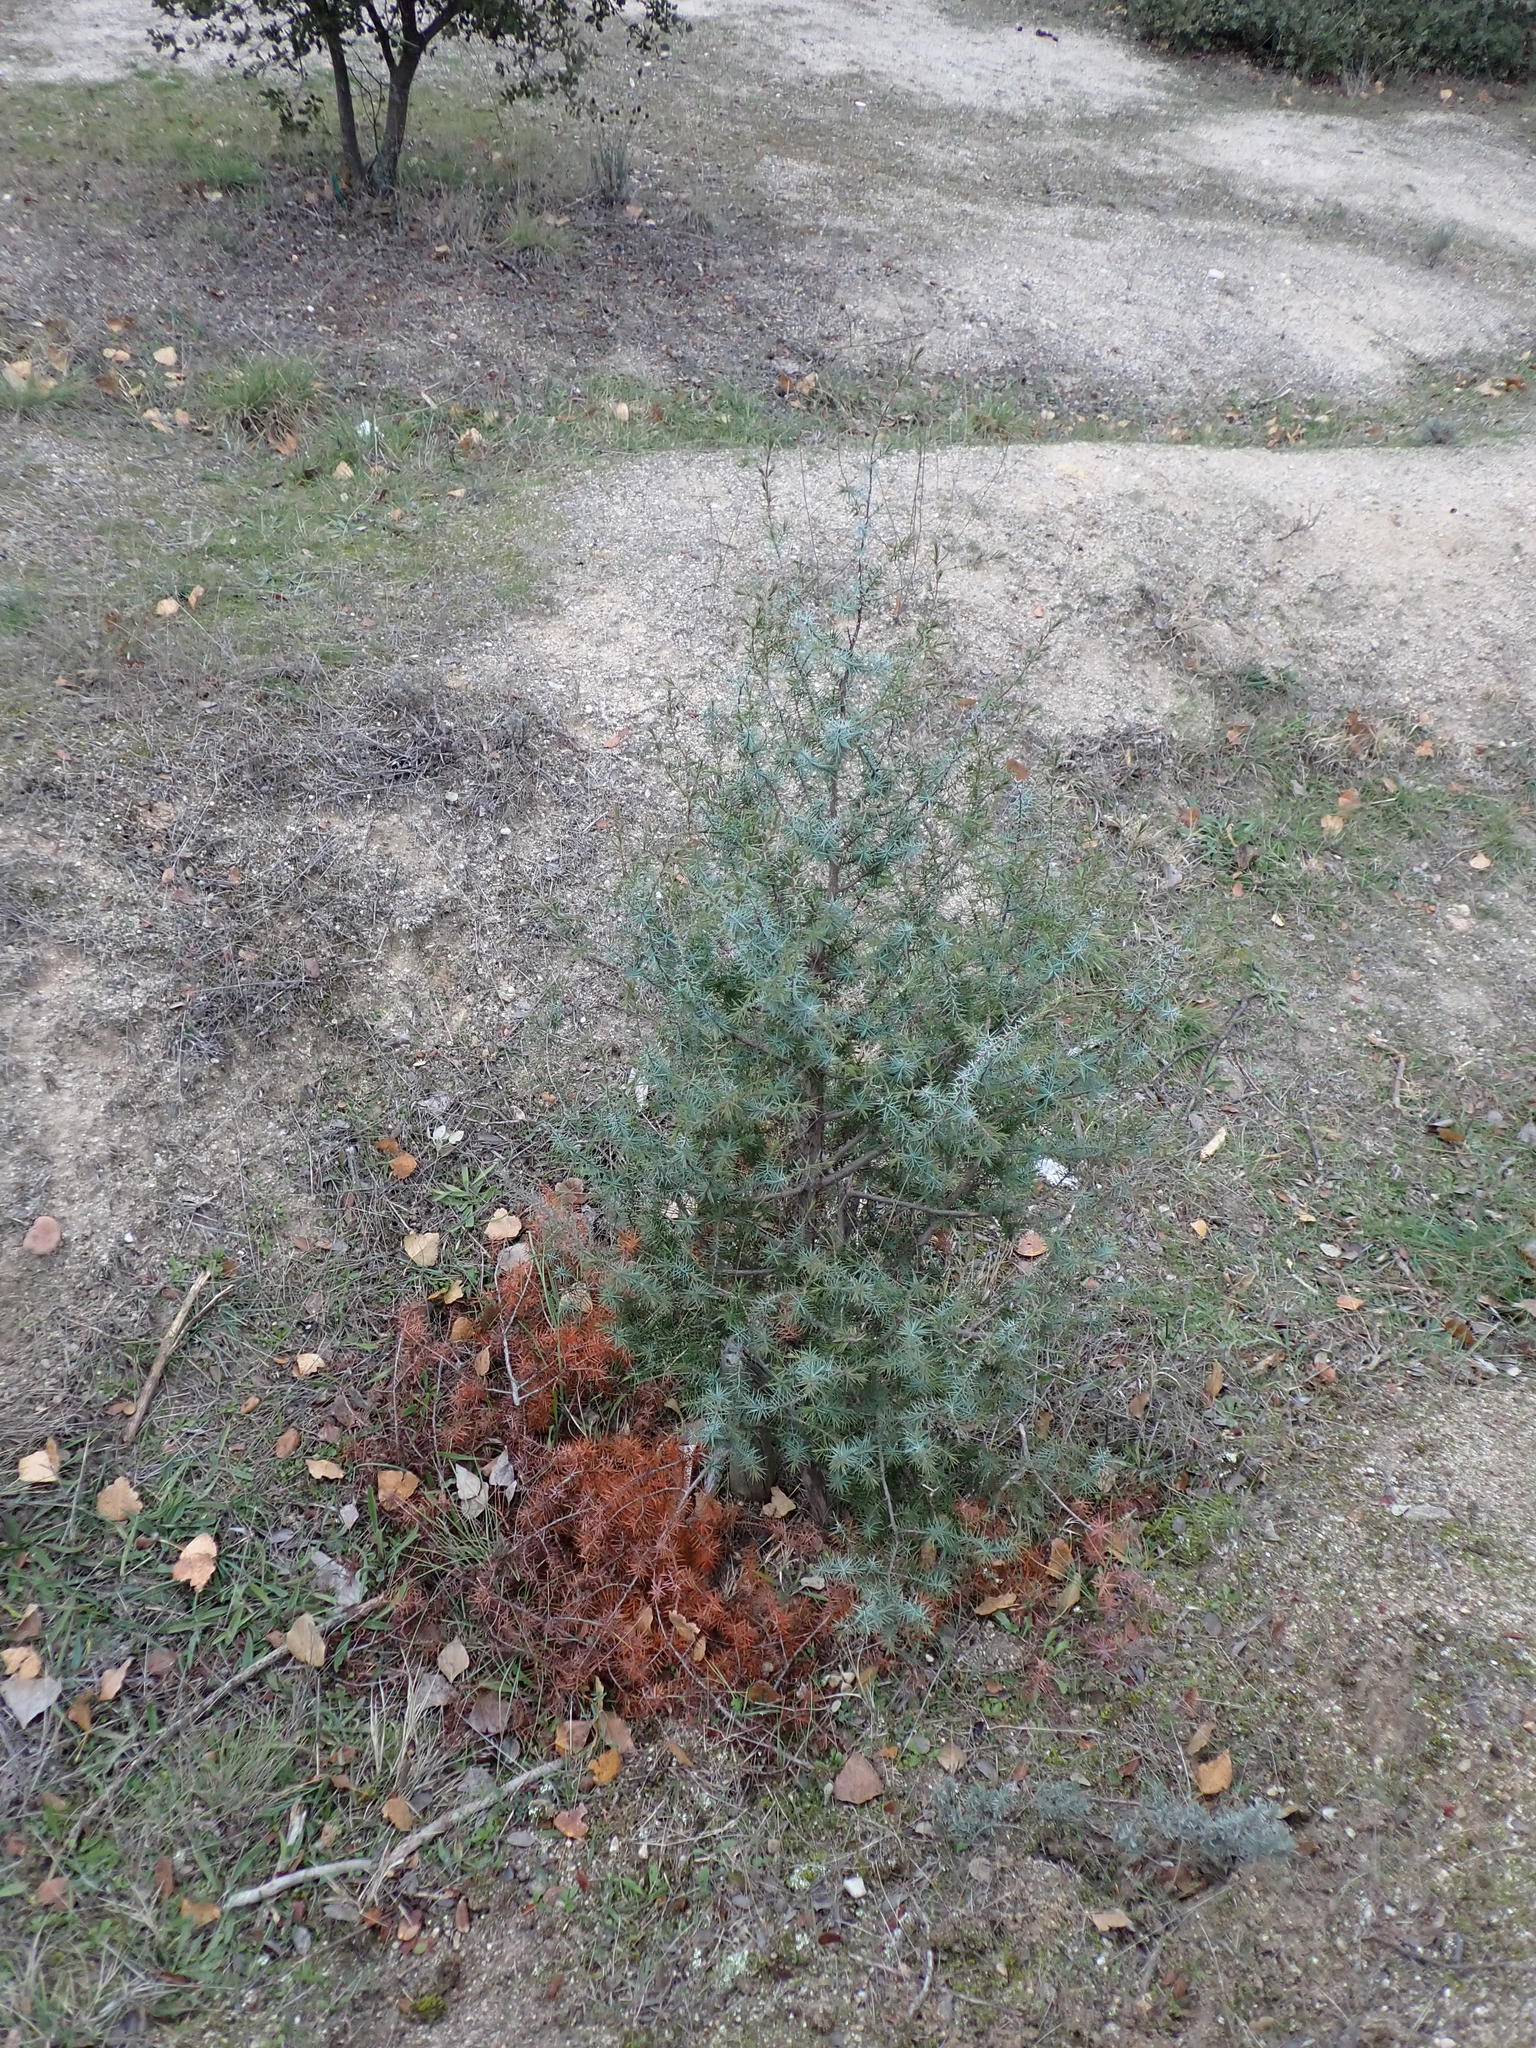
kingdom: Plantae
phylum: Tracheophyta
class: Pinopsida
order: Pinales
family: Cupressaceae
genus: Juniperus
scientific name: Juniperus oxycedrus
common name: Prickly juniper
